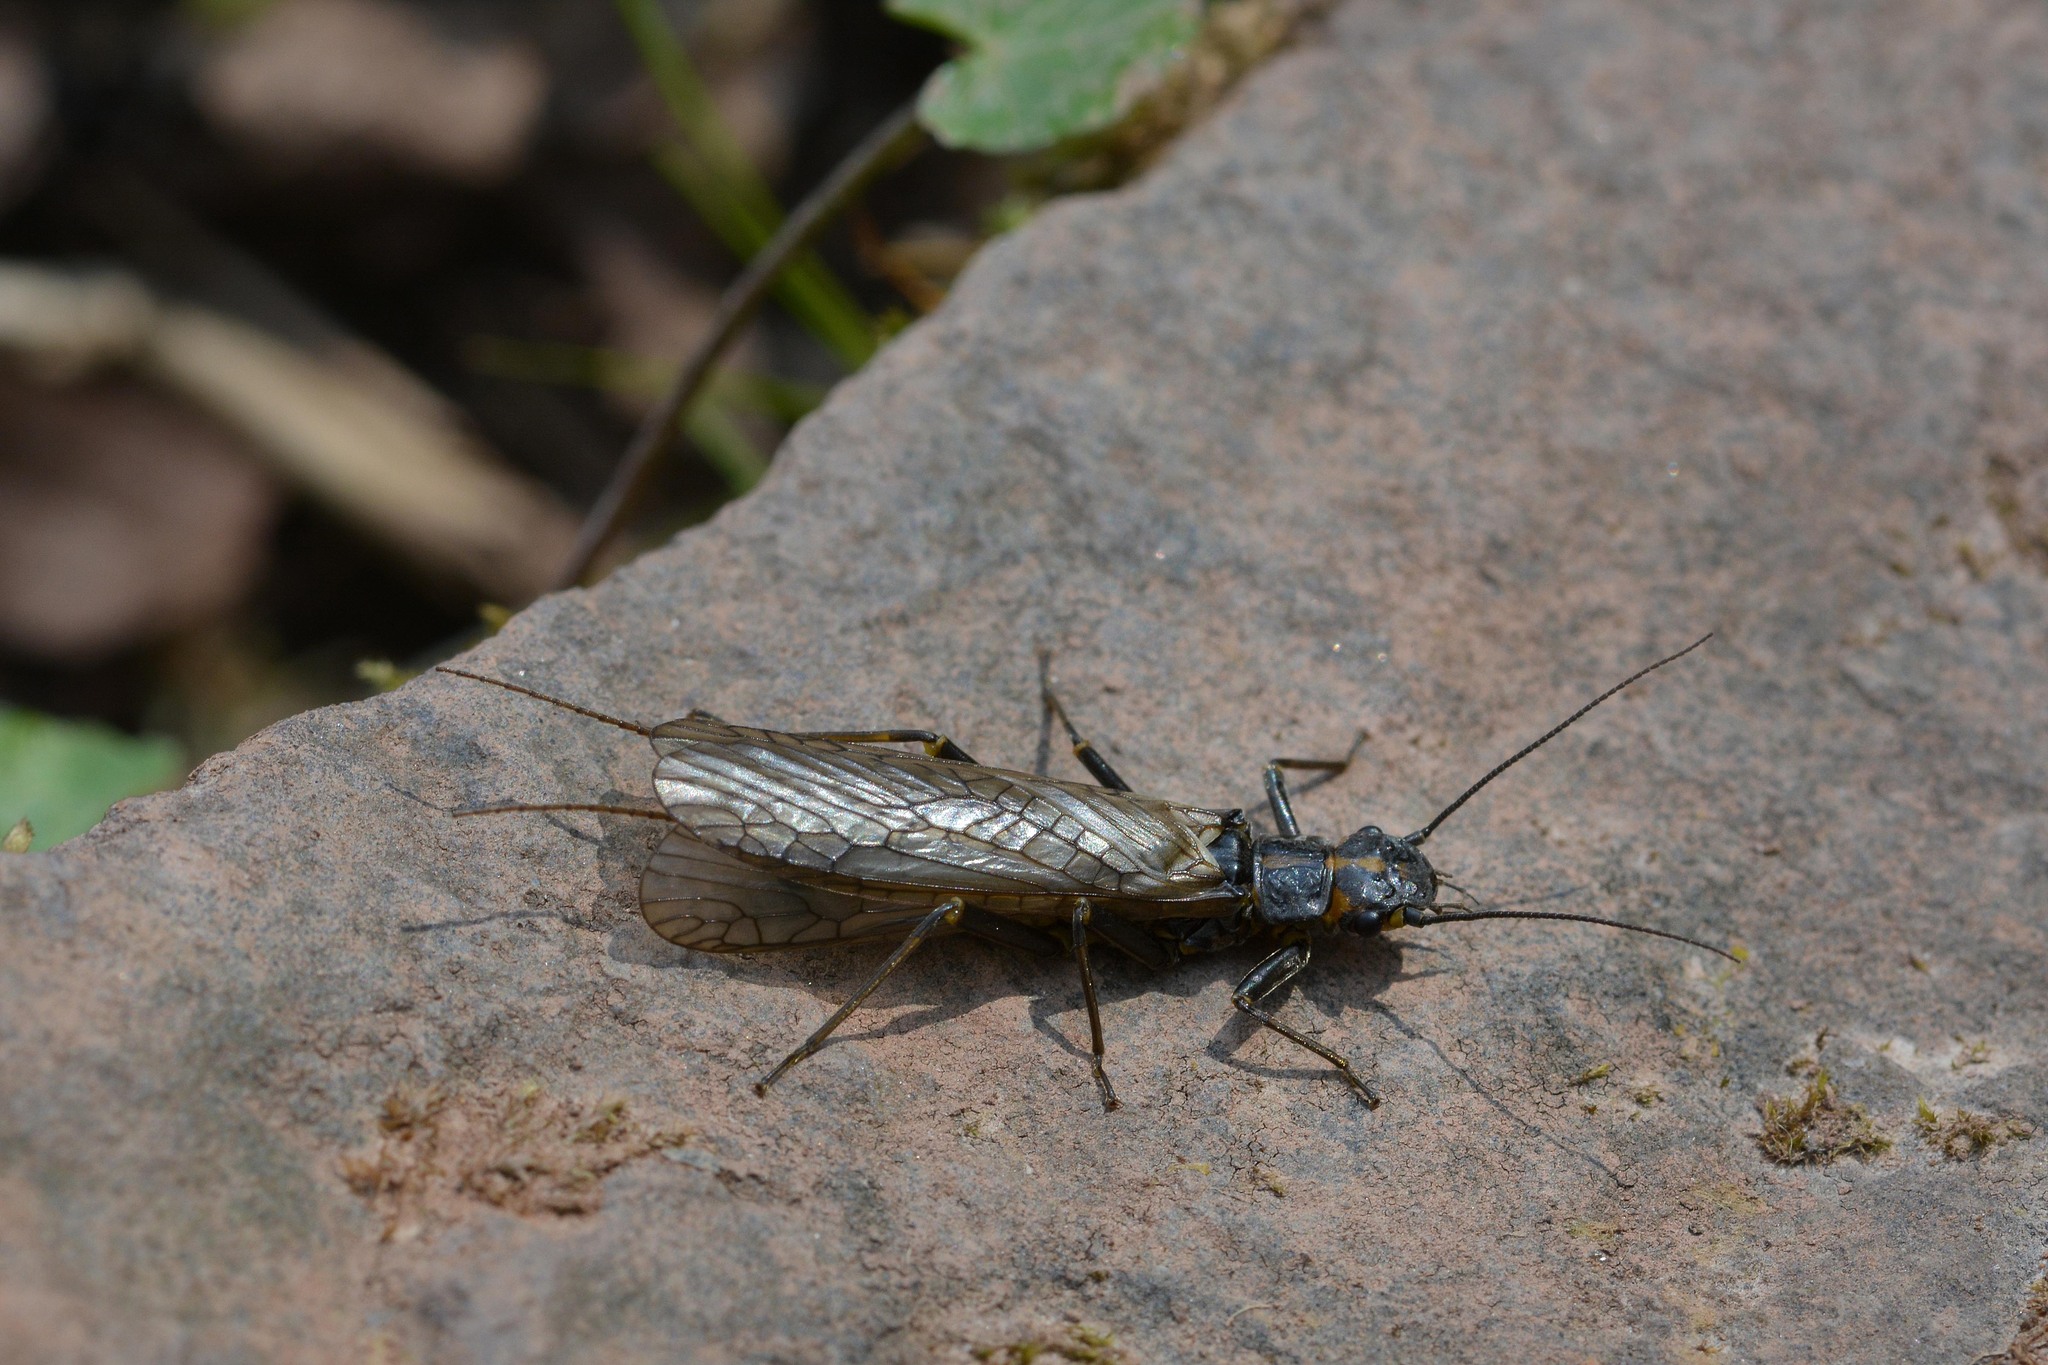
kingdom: Animalia
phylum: Arthropoda
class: Insecta
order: Plecoptera
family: Perlodidae
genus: Perlodes
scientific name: Perlodes mortoni
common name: Orange-striped stonefly
